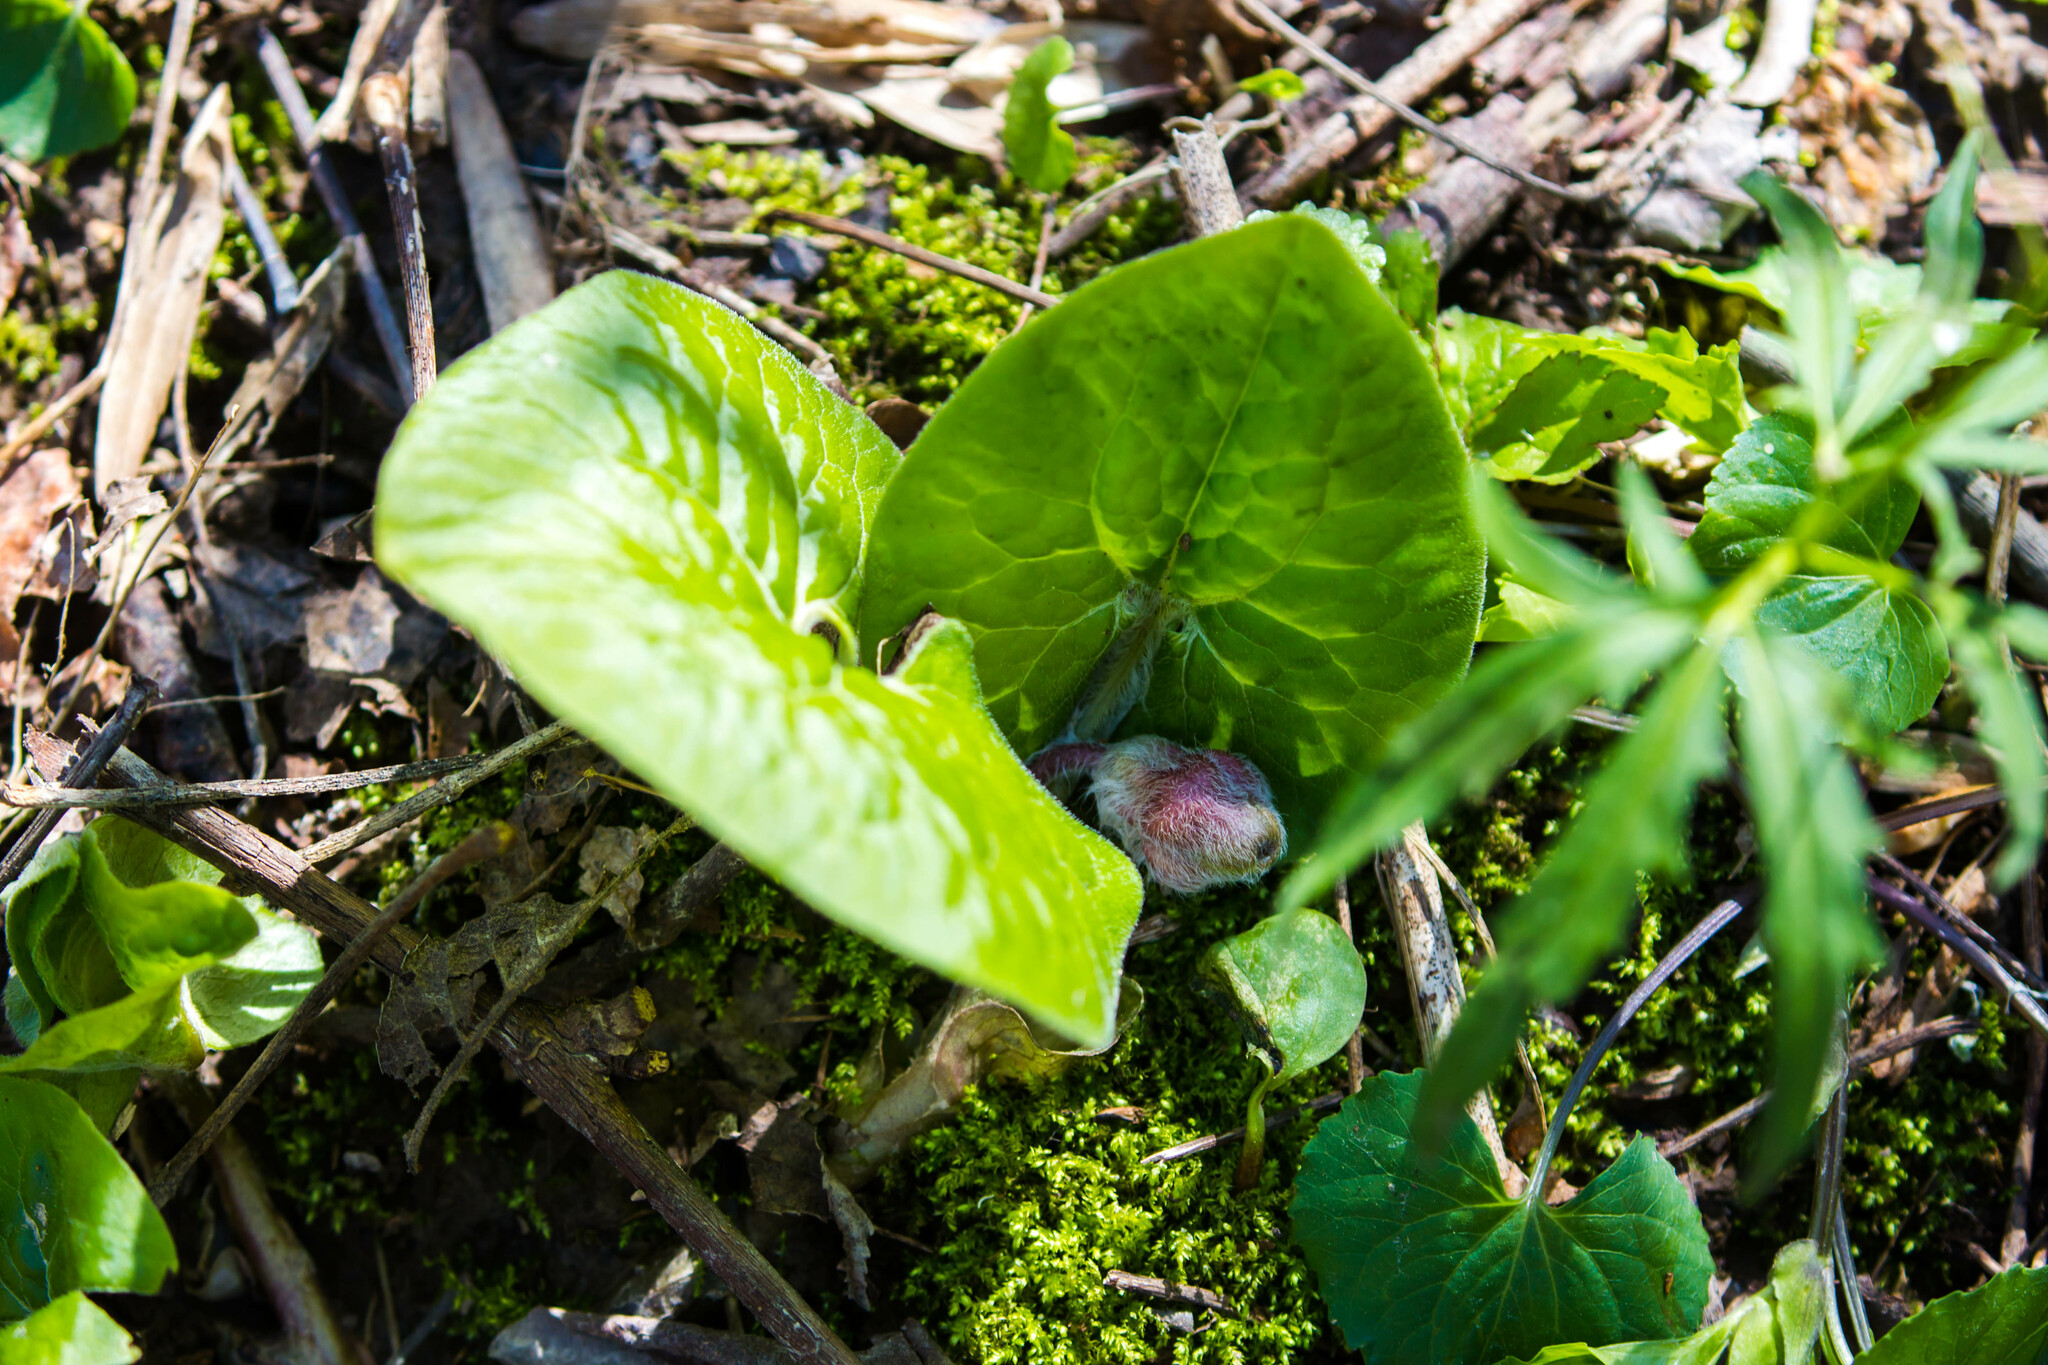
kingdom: Plantae
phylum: Tracheophyta
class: Magnoliopsida
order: Piperales
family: Aristolochiaceae
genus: Asarum
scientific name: Asarum canadense
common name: Wild ginger
